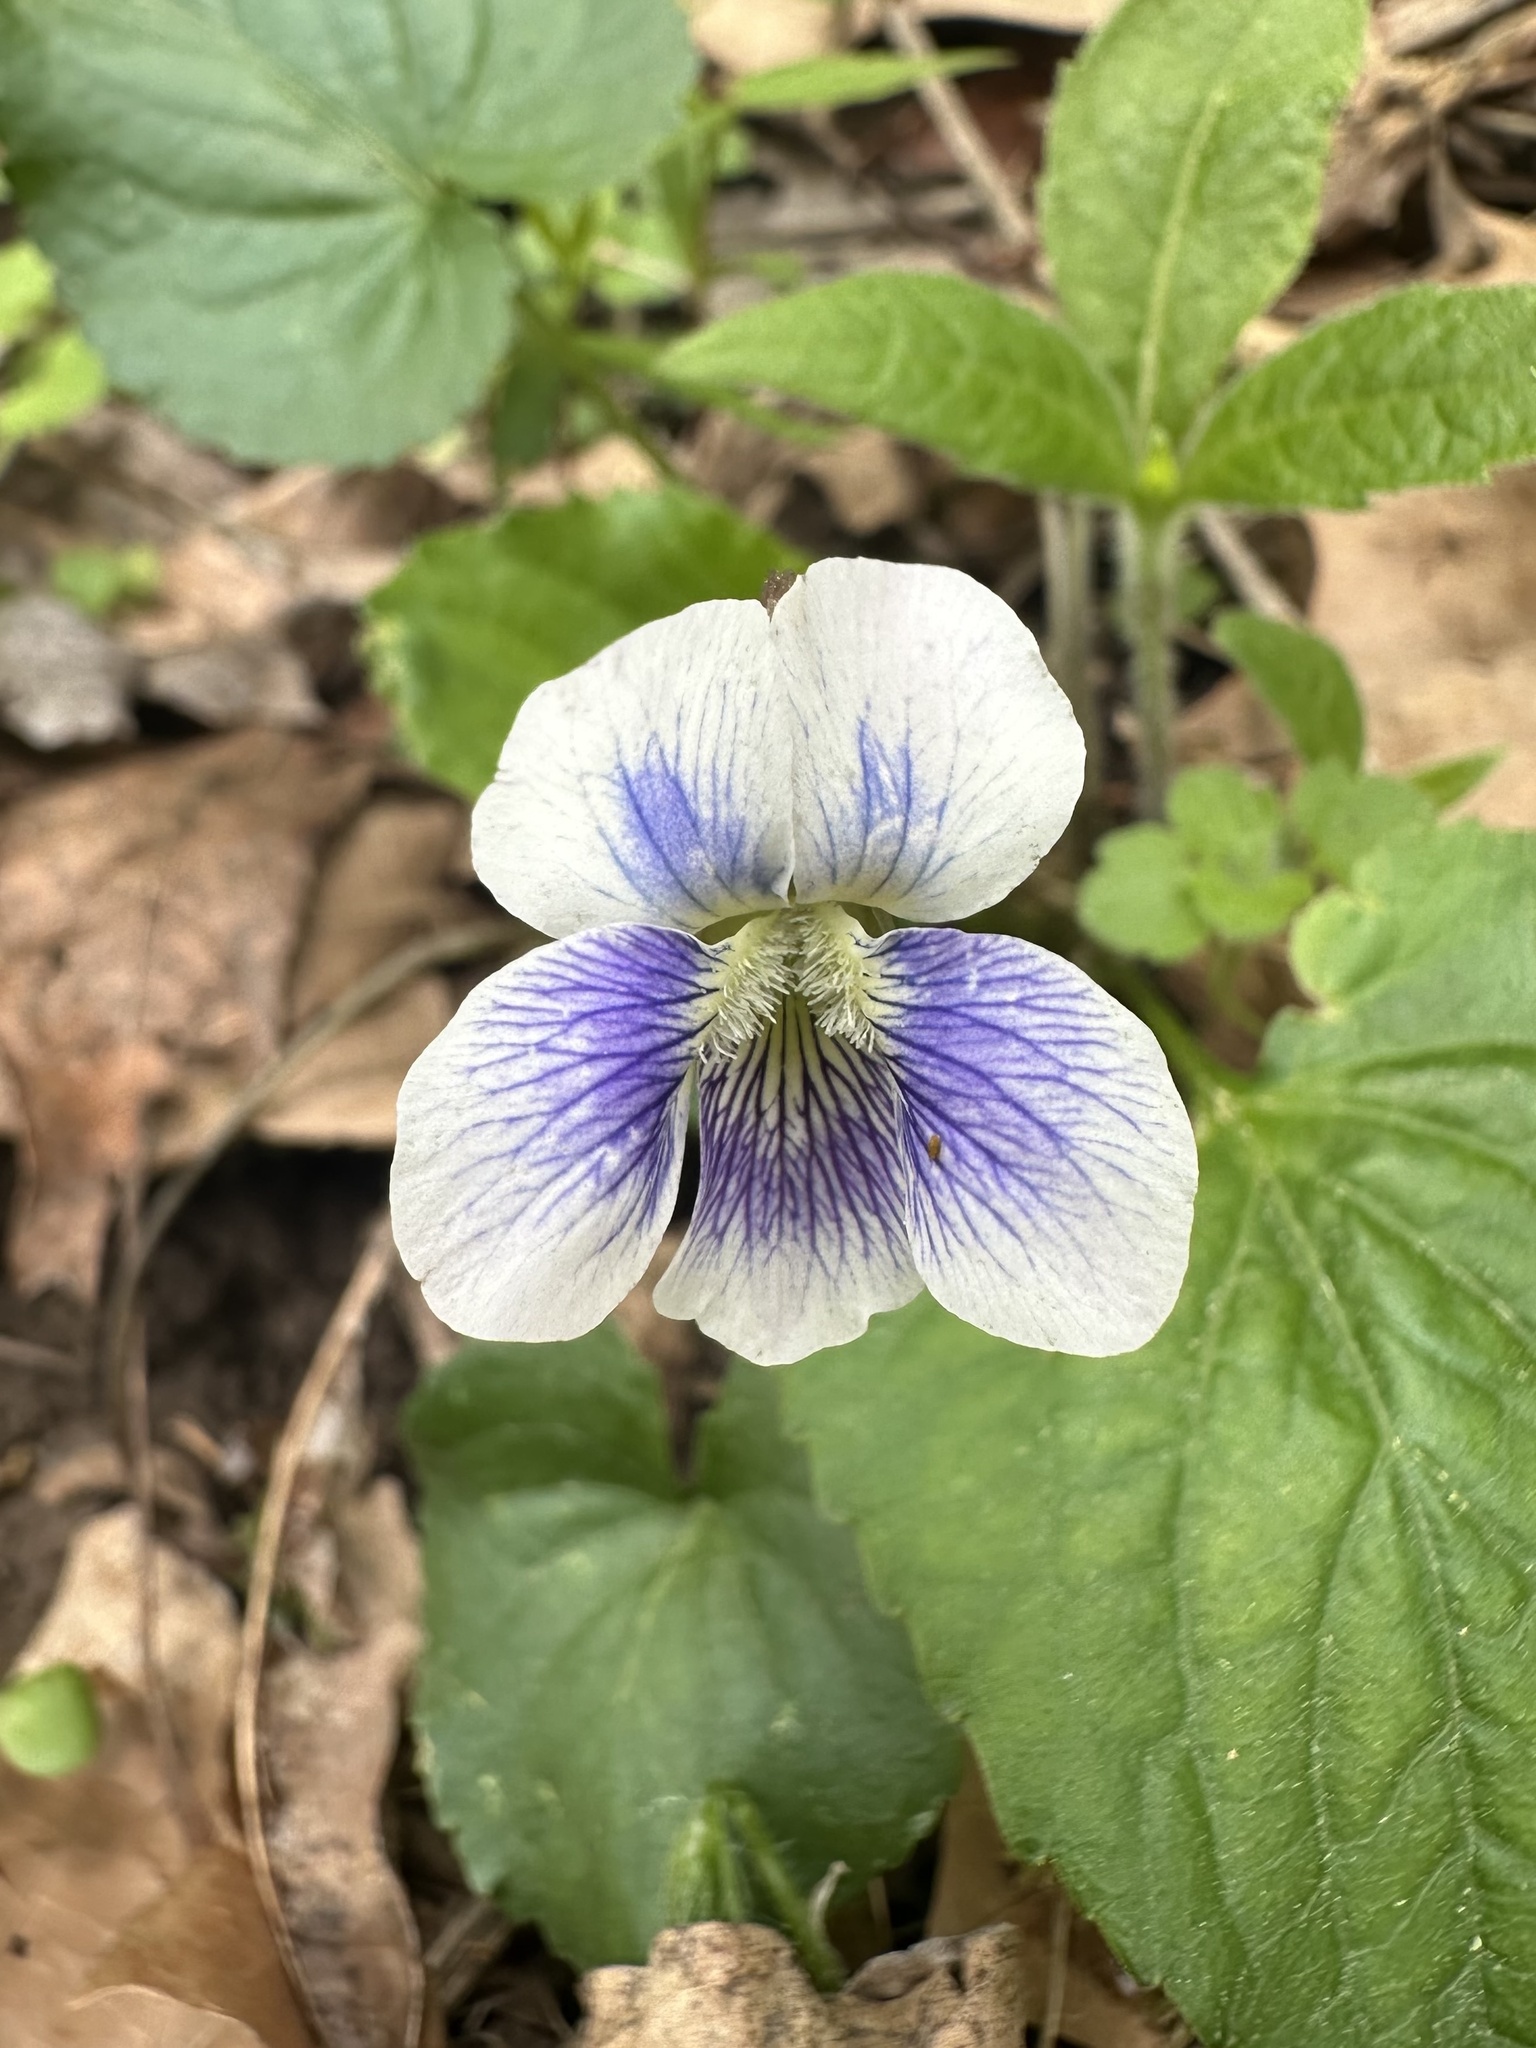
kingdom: Plantae
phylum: Tracheophyta
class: Magnoliopsida
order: Malpighiales
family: Violaceae
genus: Viola
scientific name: Viola sororia
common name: Dooryard violet
